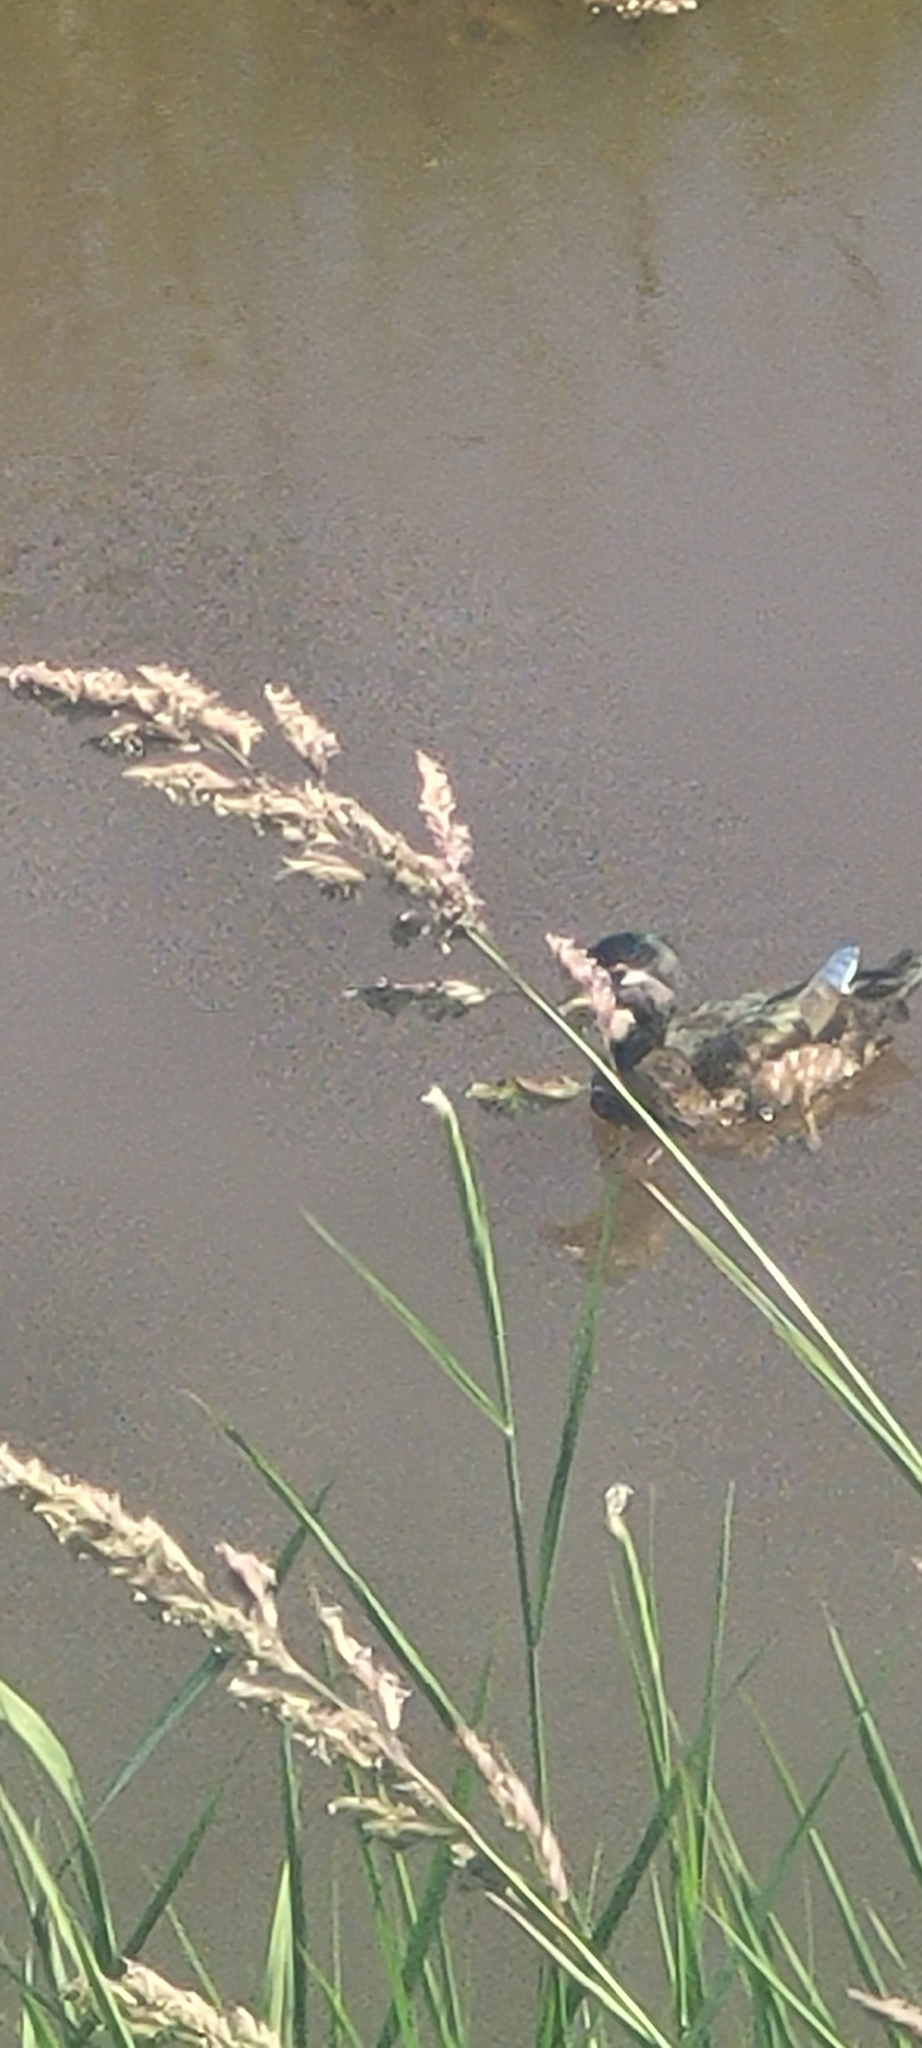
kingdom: Animalia
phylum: Chordata
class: Aves
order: Anseriformes
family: Anatidae
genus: Aix
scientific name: Aix sponsa
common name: Wood duck
